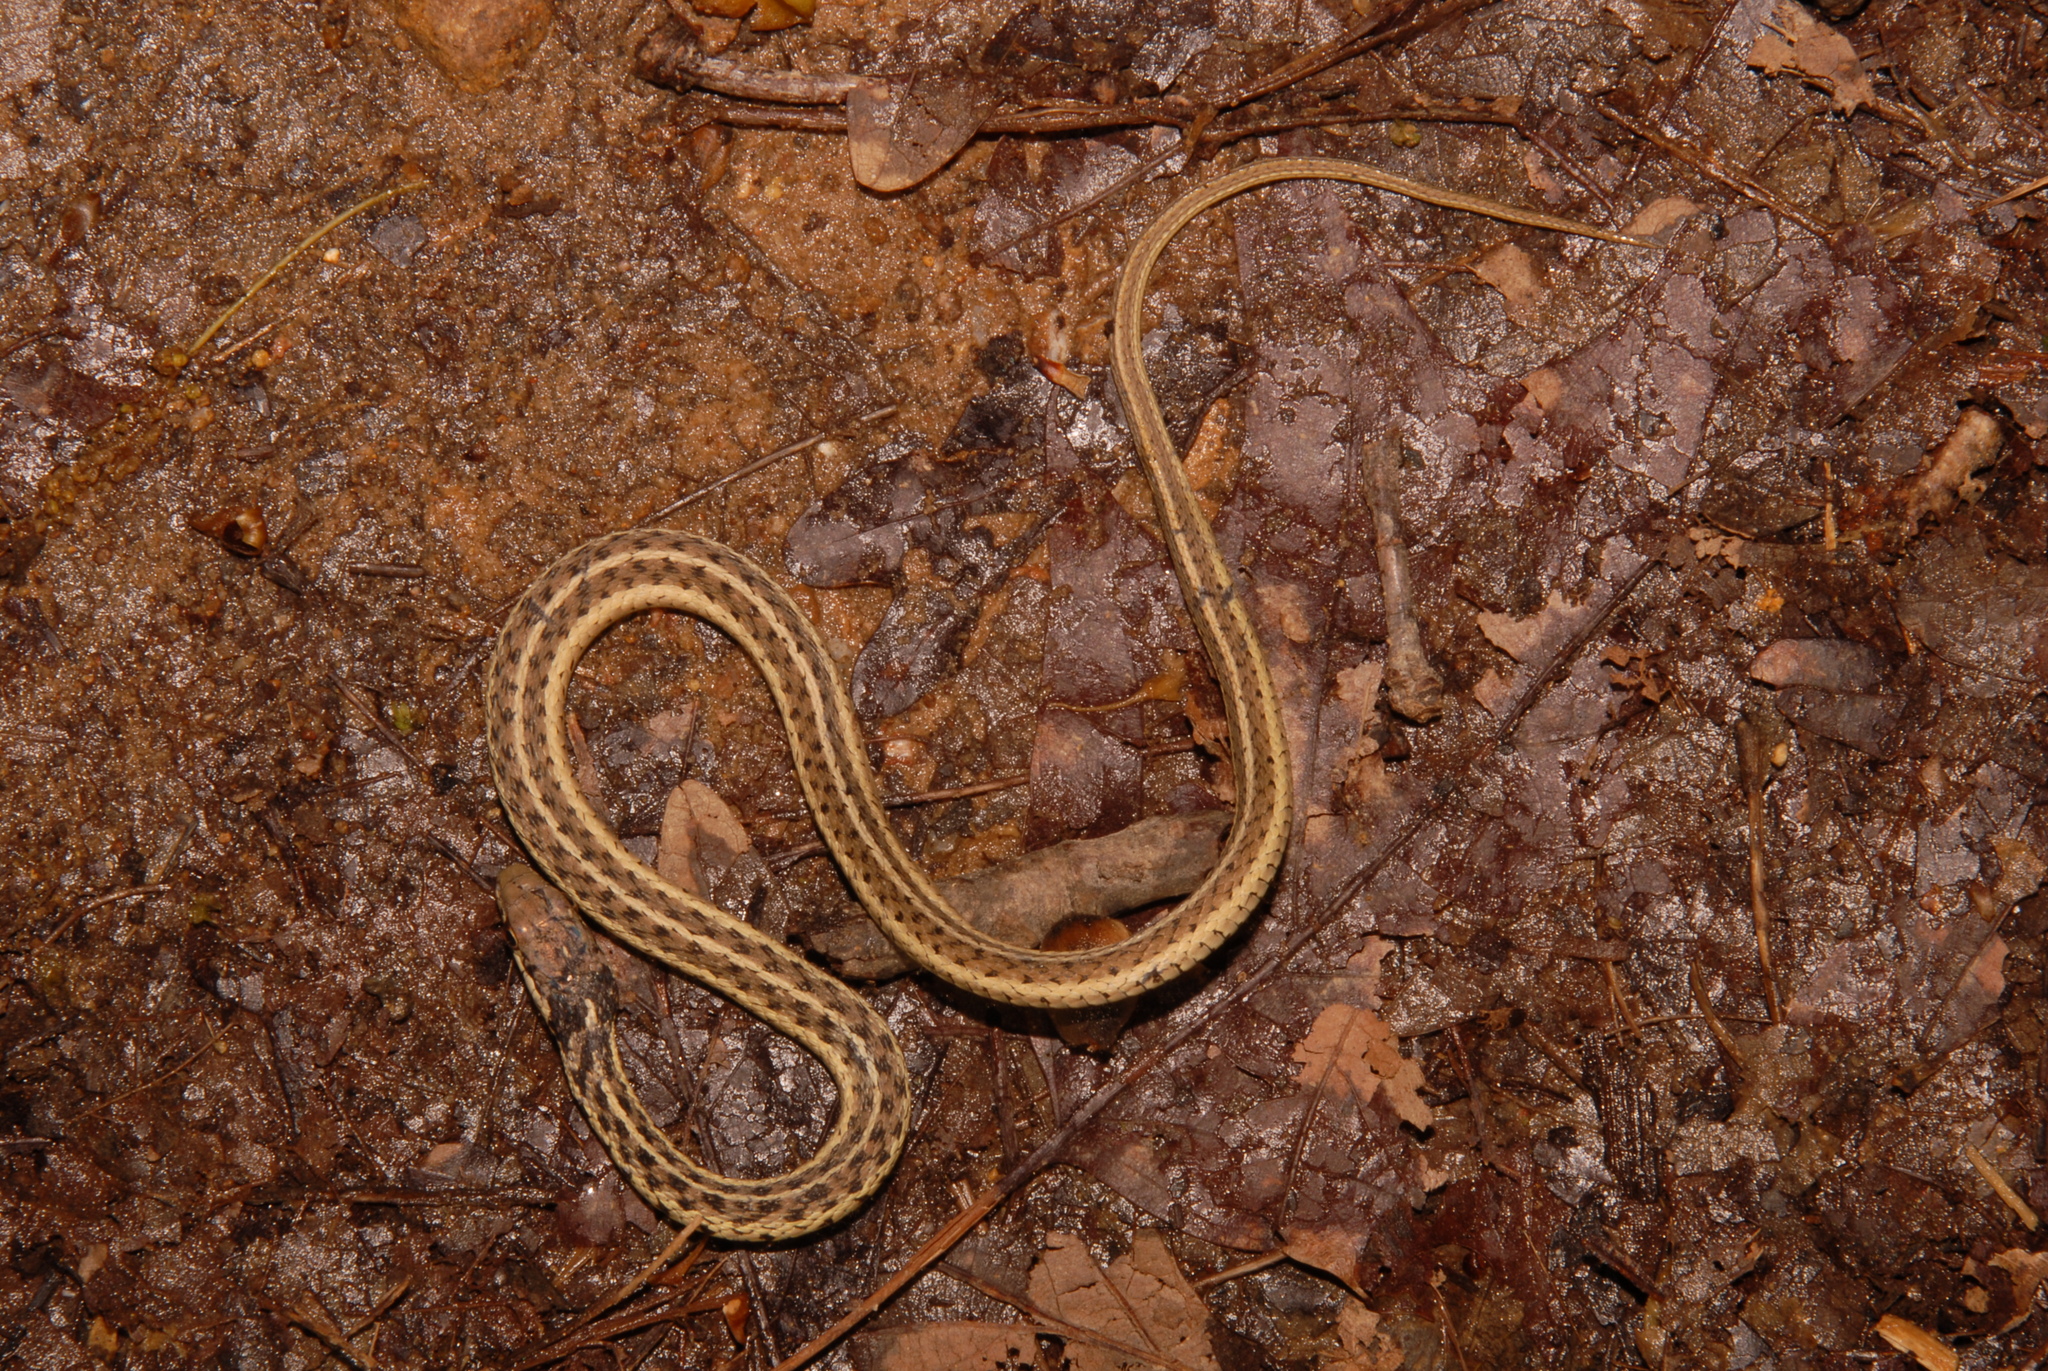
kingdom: Animalia
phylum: Chordata
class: Squamata
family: Colubridae
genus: Thamnophis
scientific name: Thamnophis sirtalis
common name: Common garter snake
